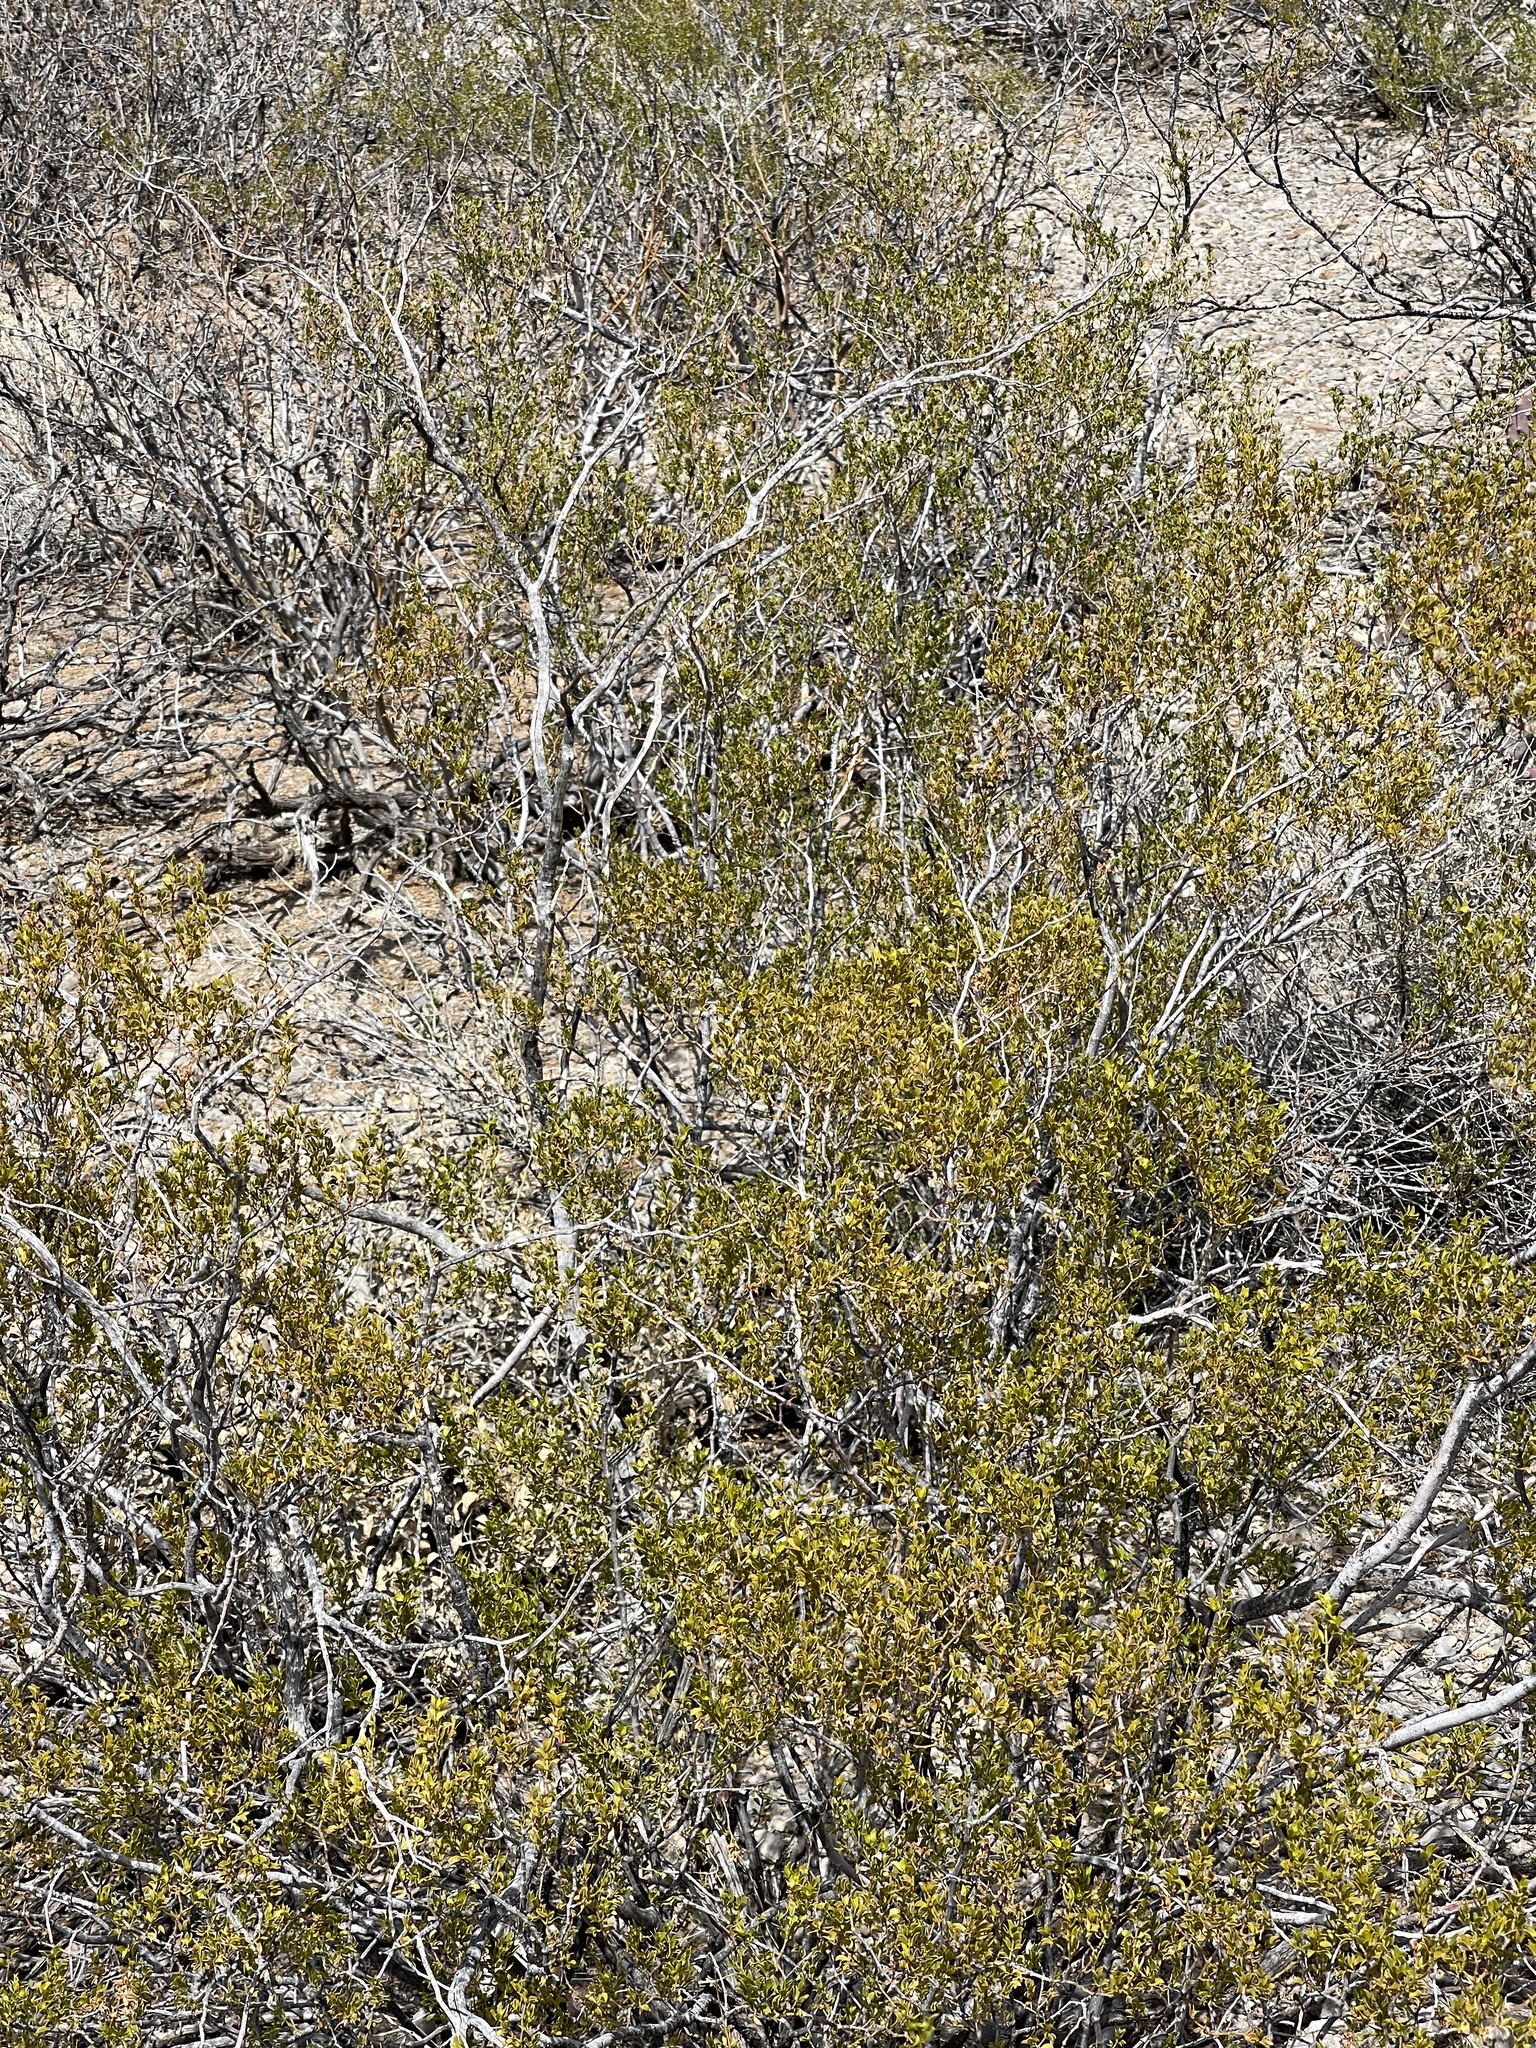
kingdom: Plantae
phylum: Tracheophyta
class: Magnoliopsida
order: Zygophyllales
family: Zygophyllaceae
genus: Larrea
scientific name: Larrea tridentata
